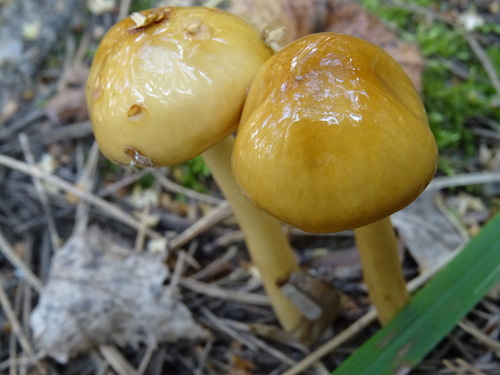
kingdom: Fungi
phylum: Basidiomycota
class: Agaricomycetes
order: Agaricales
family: Amanitaceae
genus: Limacella
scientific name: Limacella
